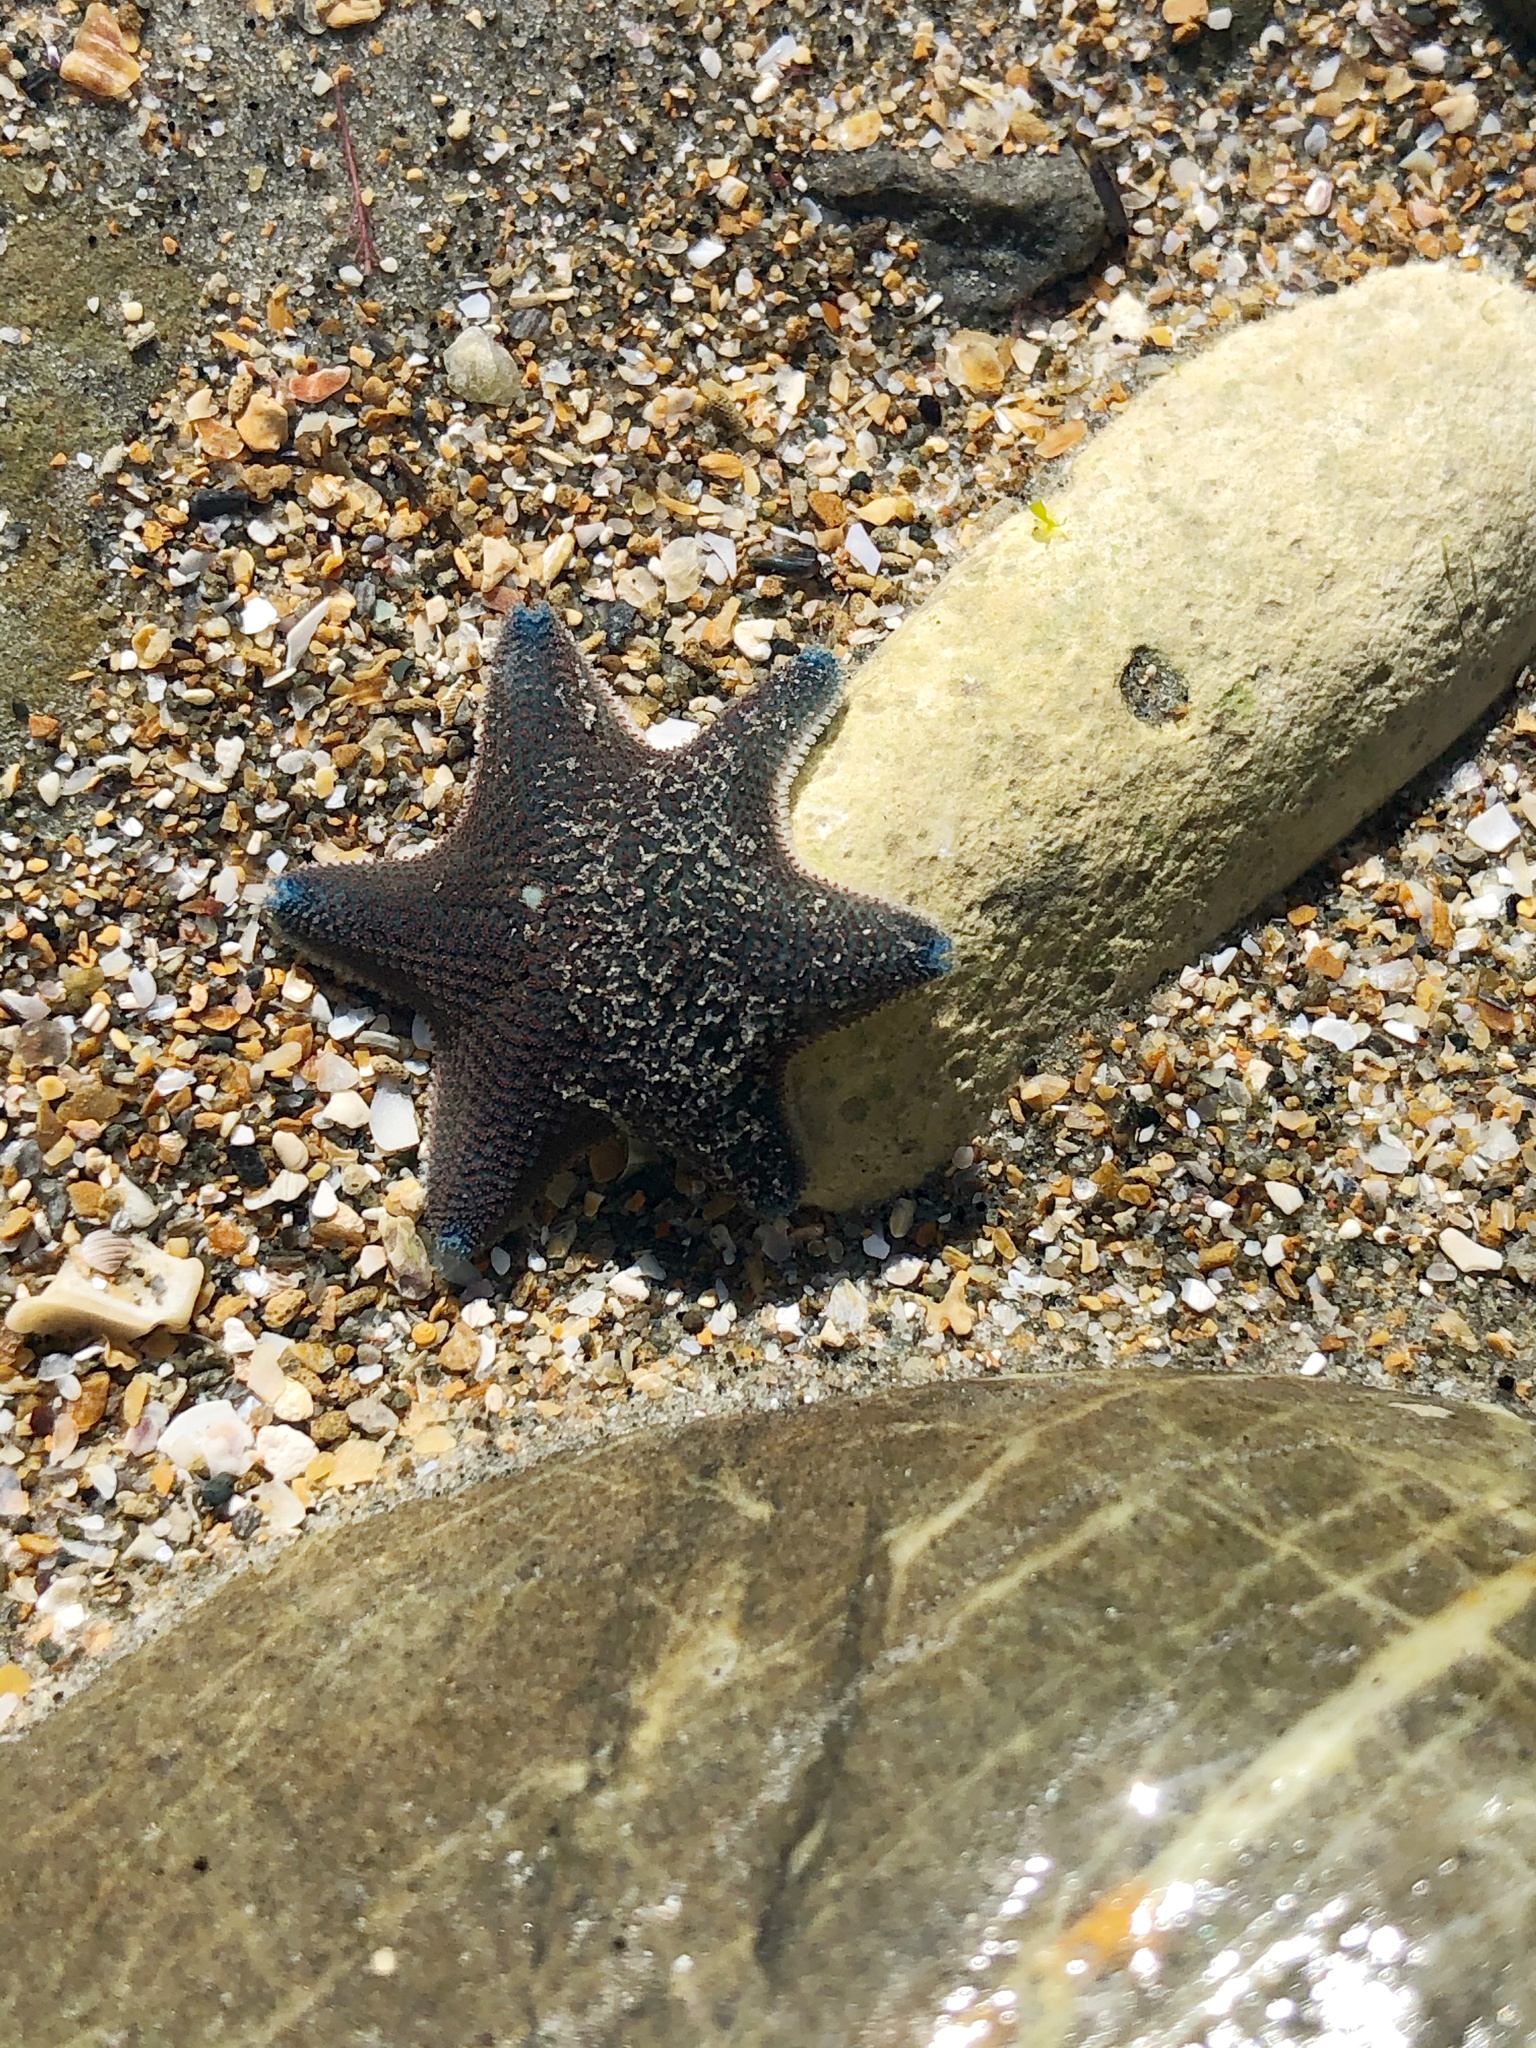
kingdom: Animalia
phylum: Echinodermata
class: Asteroidea
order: Valvatida
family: Asterinidae
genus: Patiriella
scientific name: Patiriella regularis
